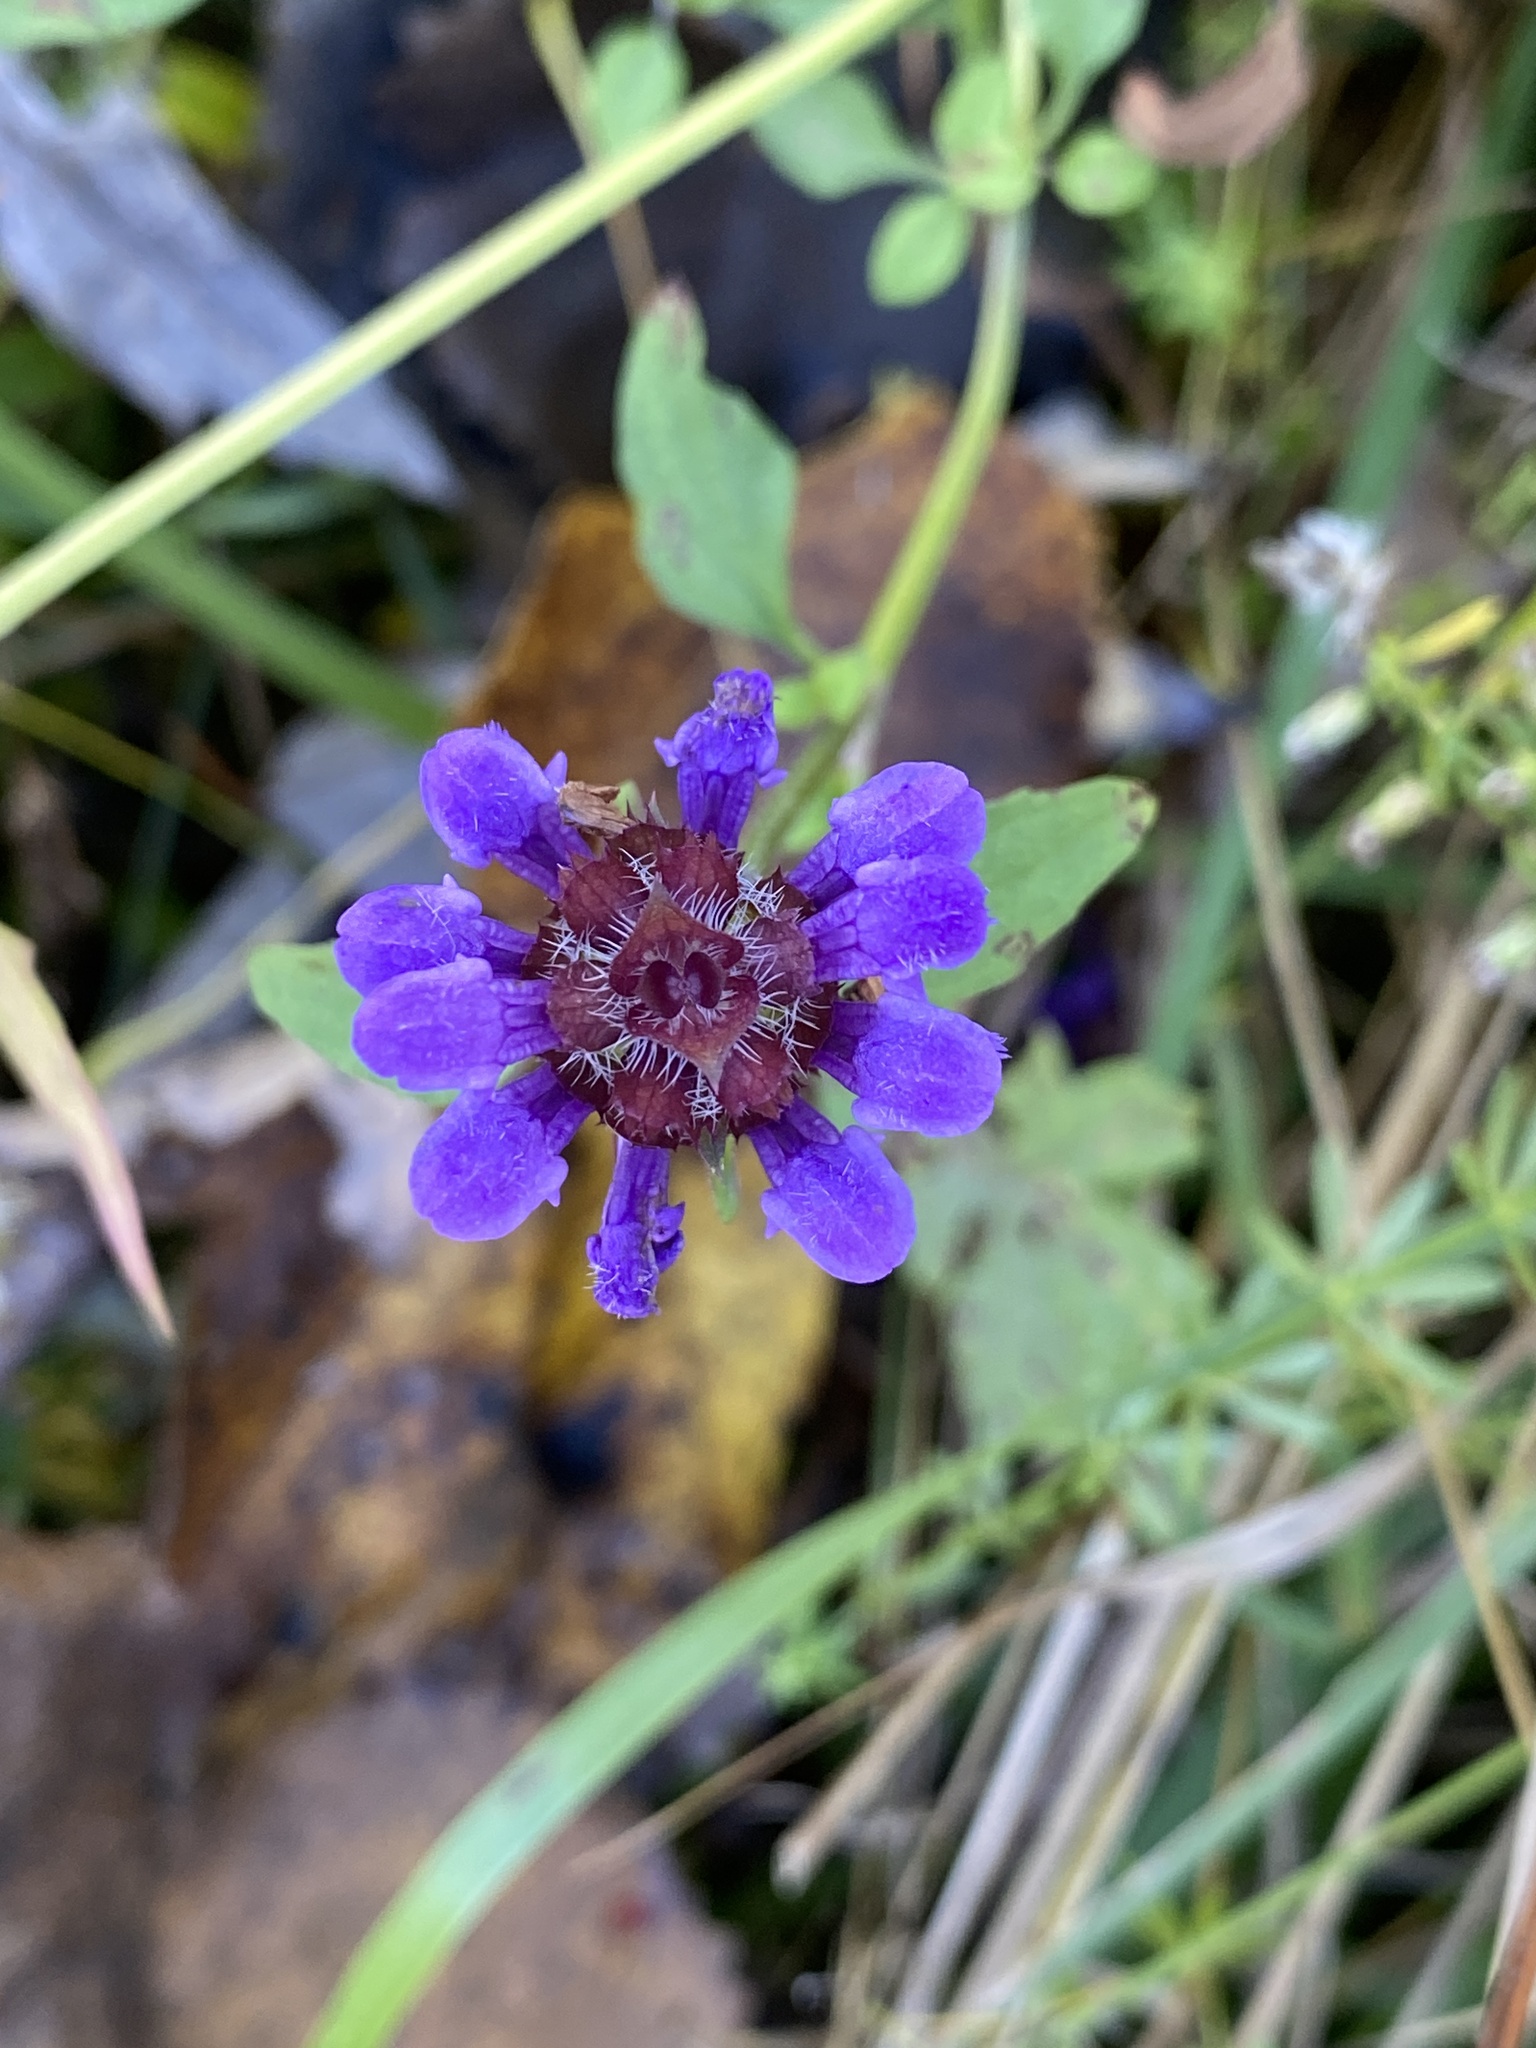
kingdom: Plantae
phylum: Tracheophyta
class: Magnoliopsida
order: Lamiales
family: Lamiaceae
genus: Prunella
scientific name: Prunella vulgaris
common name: Heal-all
